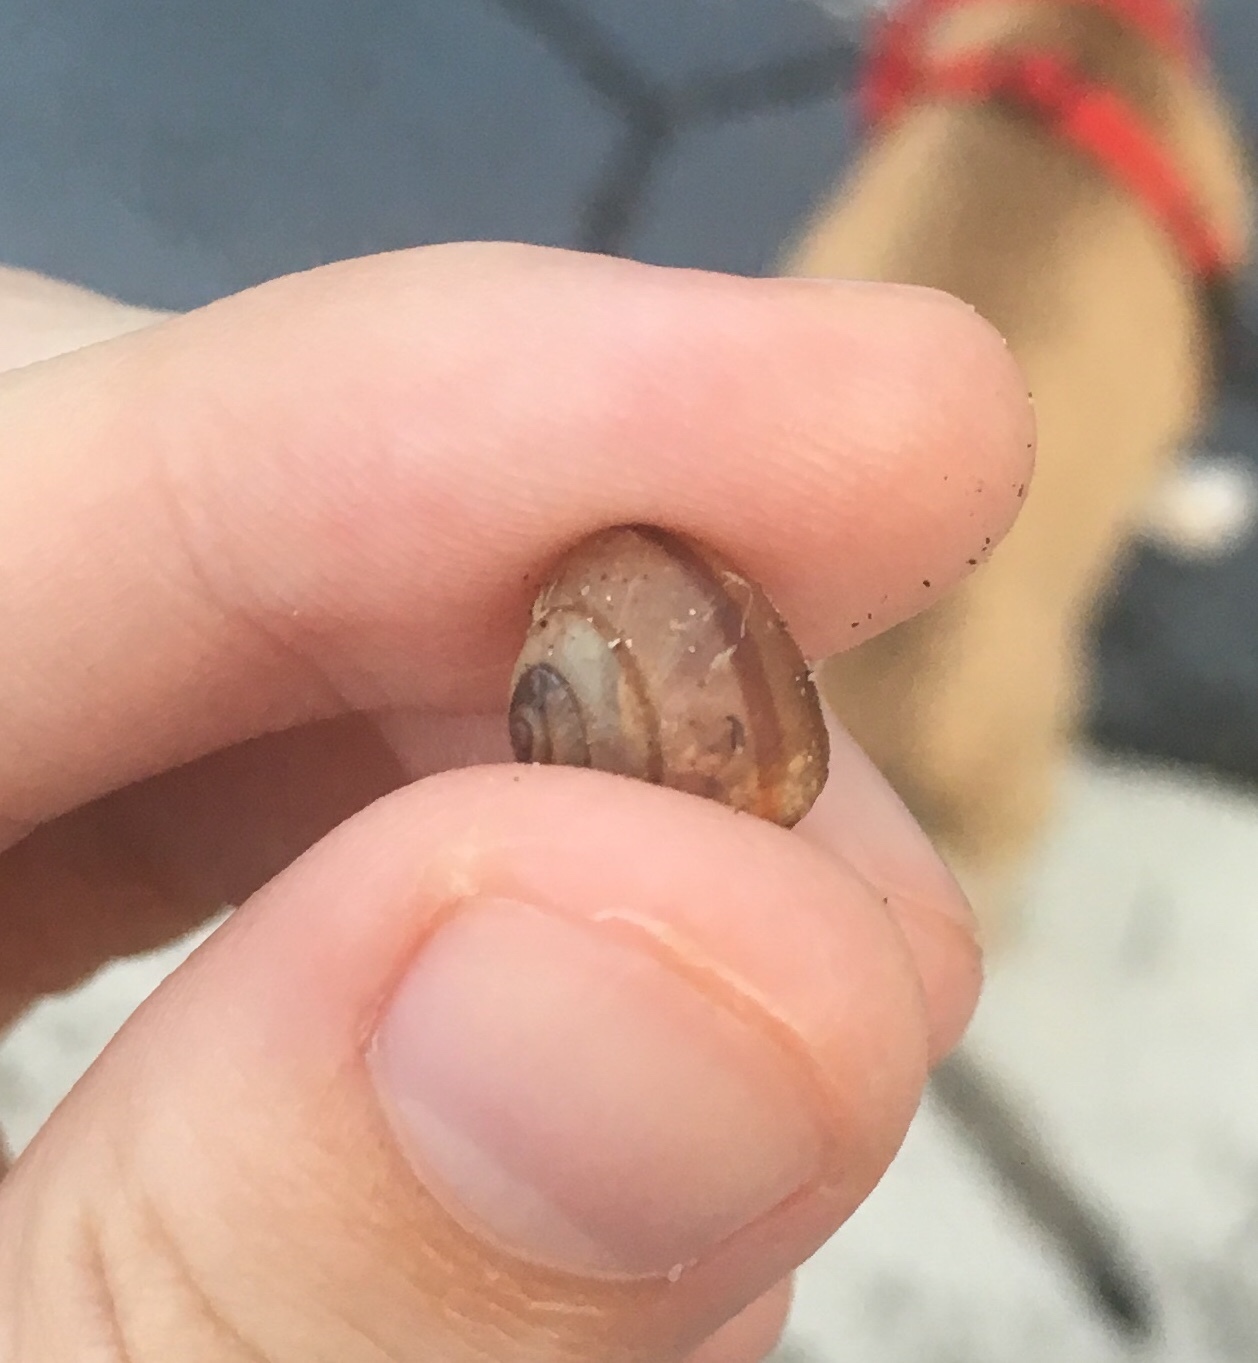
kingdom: Animalia
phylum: Mollusca
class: Gastropoda
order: Stylommatophora
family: Camaenidae
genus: Bradybaena
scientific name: Bradybaena similaris
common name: Asian trampsnail
